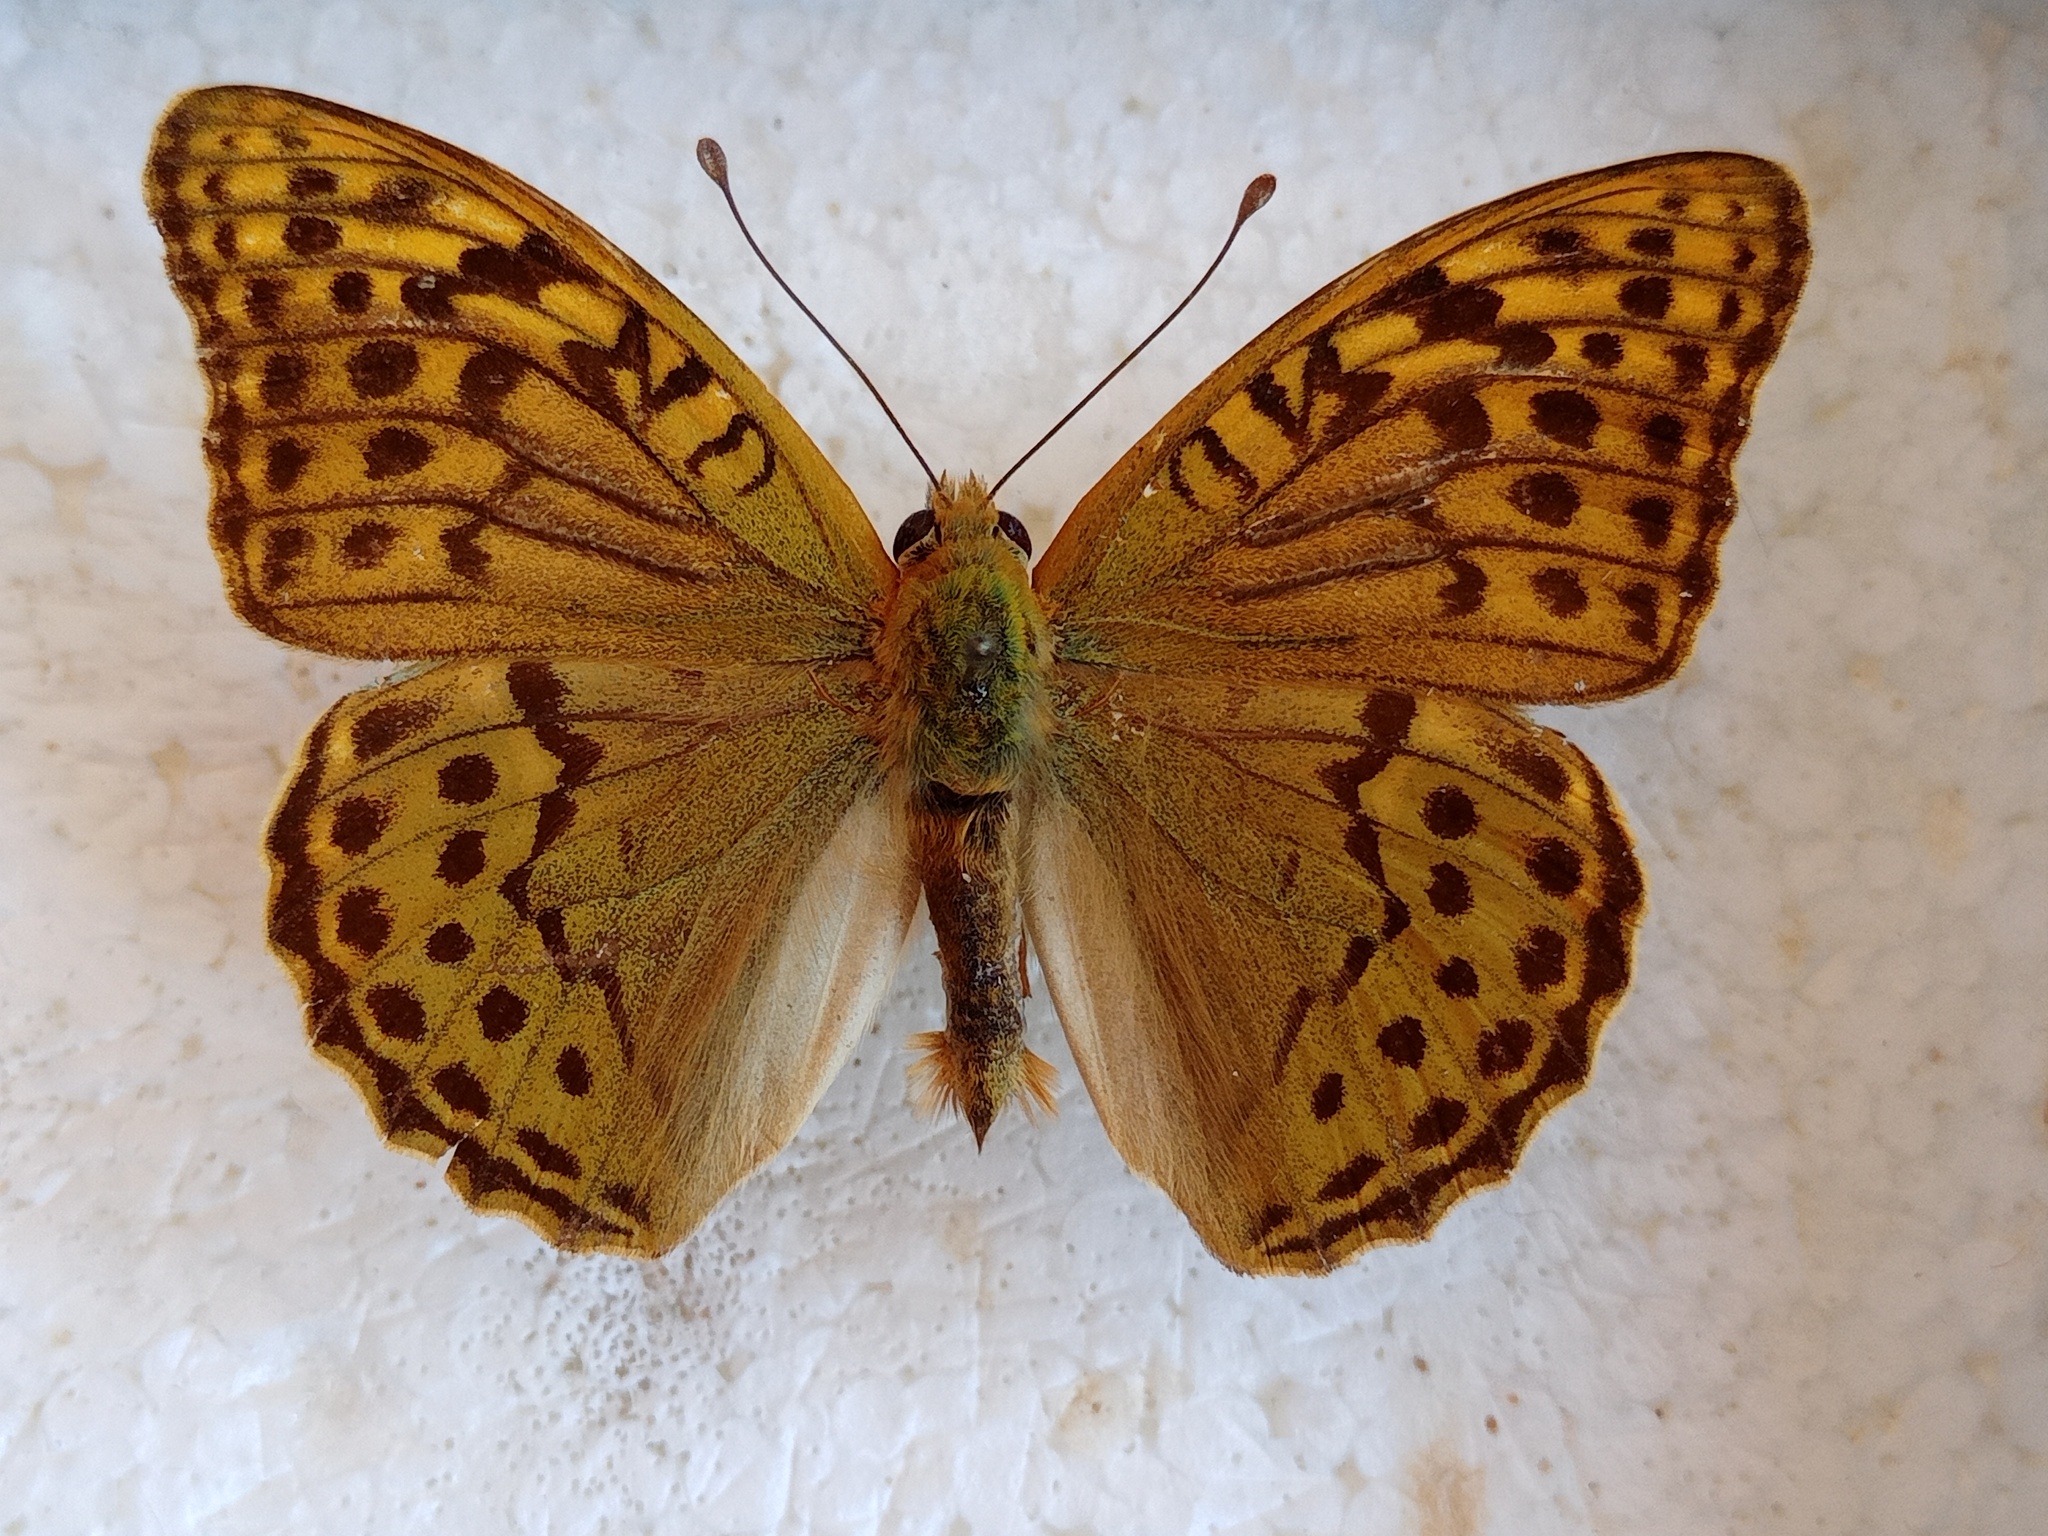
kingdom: Animalia
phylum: Arthropoda
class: Insecta
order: Lepidoptera
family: Nymphalidae
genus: Damora
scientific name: Damora pandora
